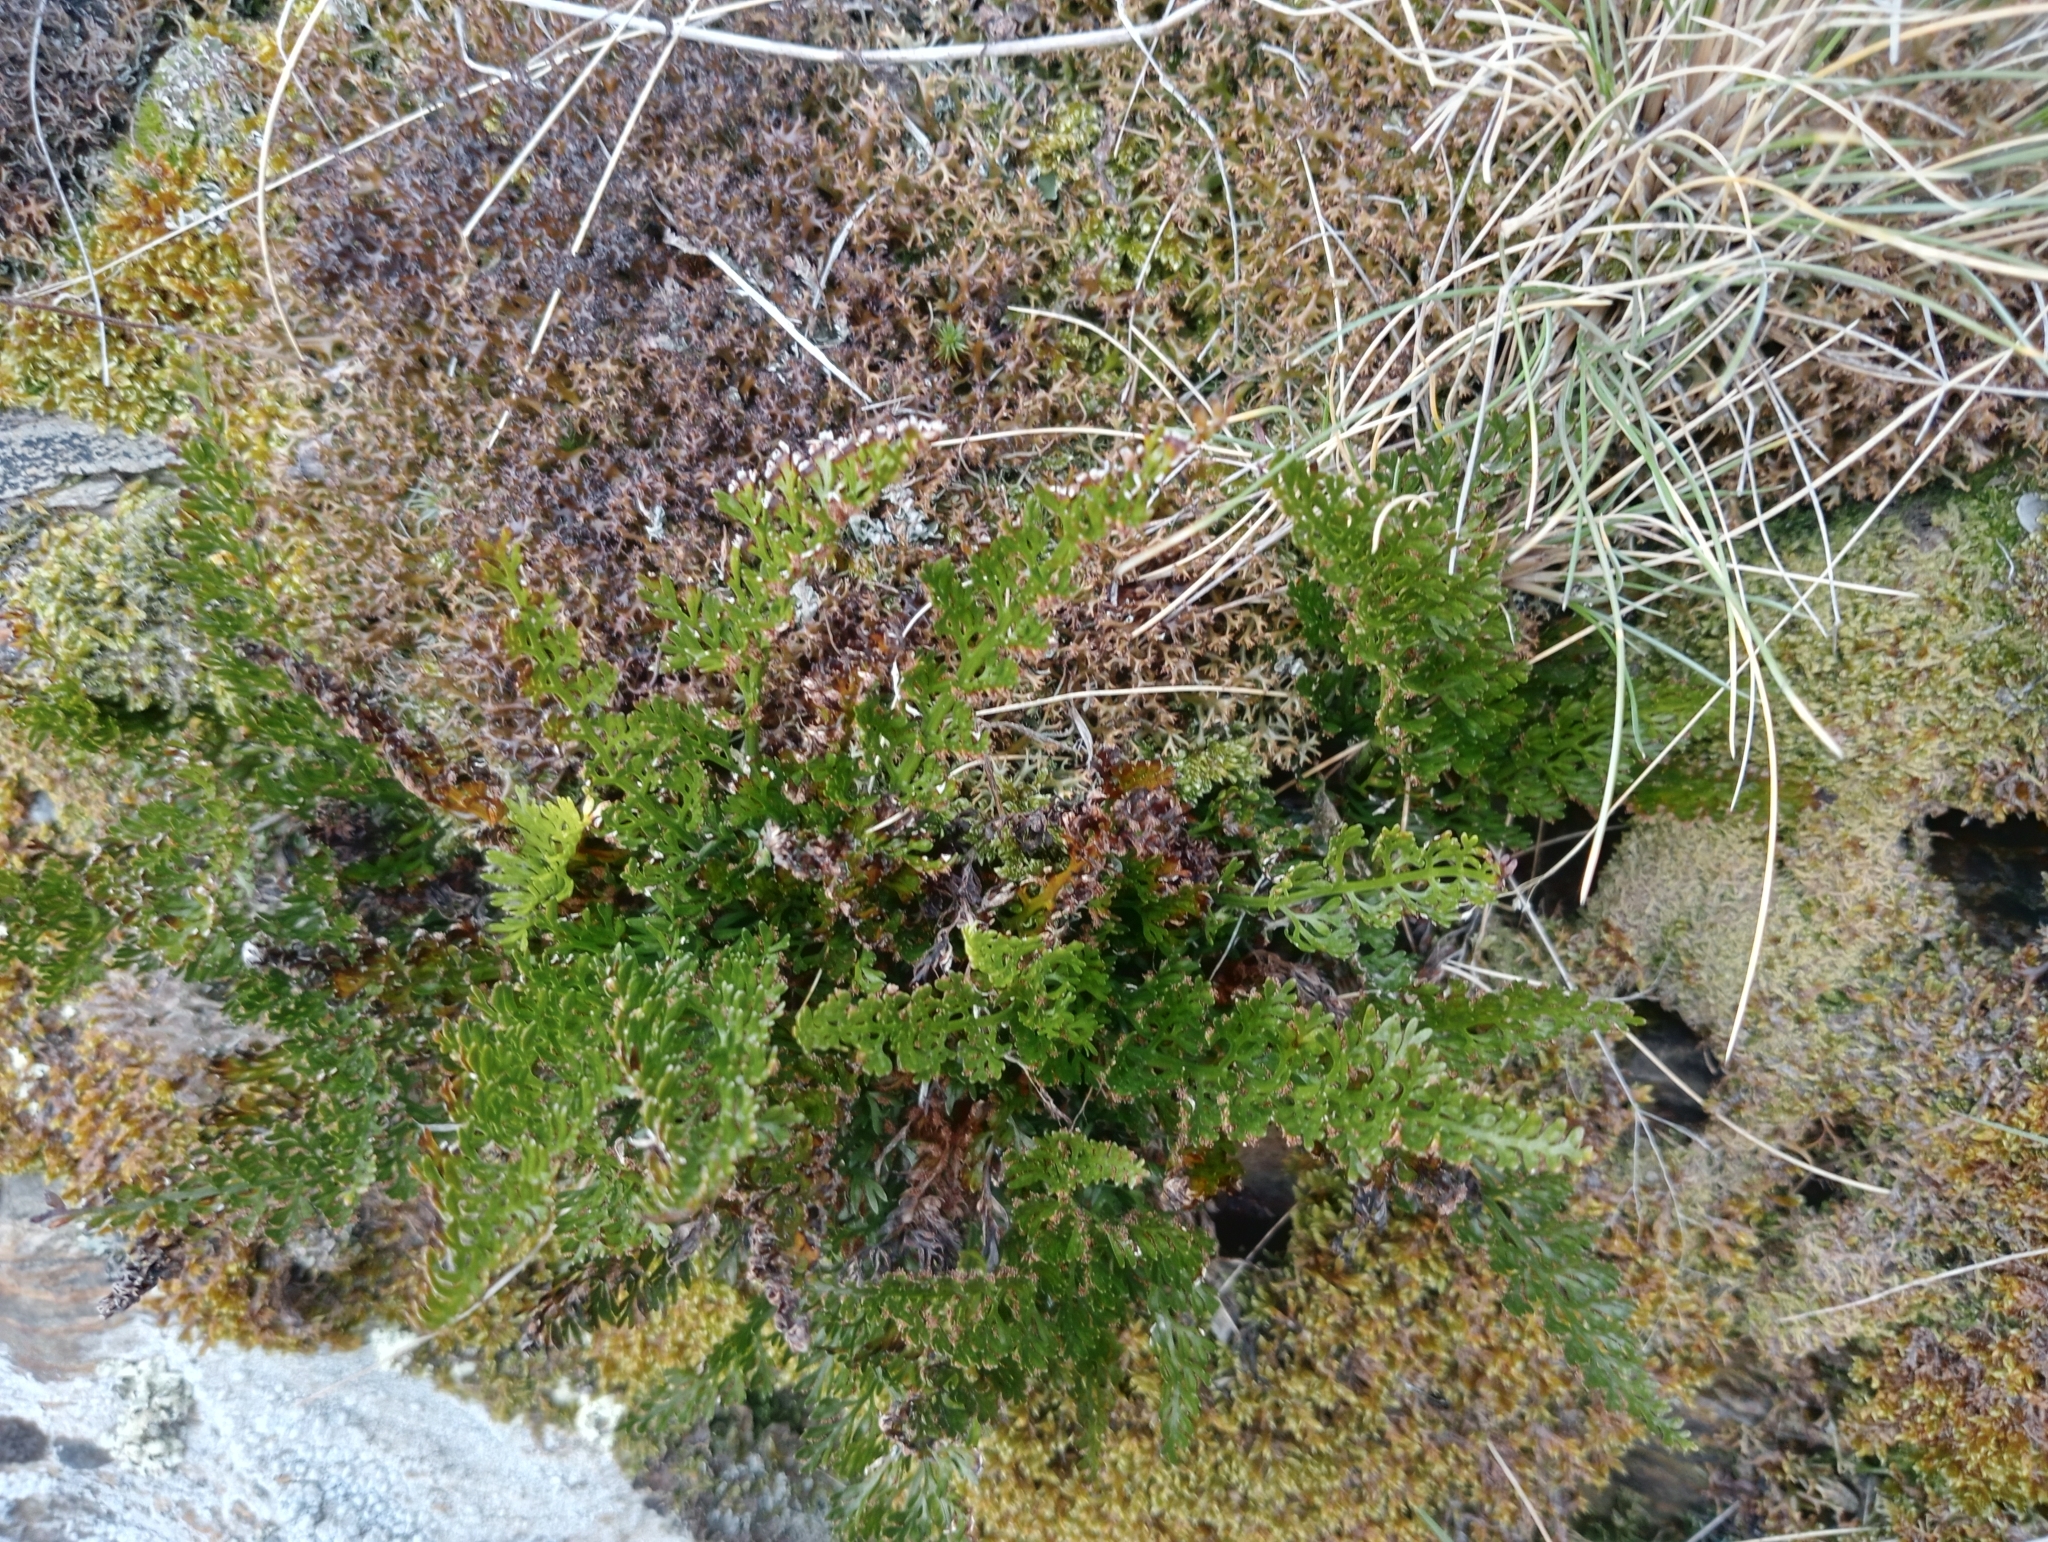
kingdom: Plantae
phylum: Tracheophyta
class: Polypodiopsida
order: Polypodiales
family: Aspleniaceae
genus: Asplenium
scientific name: Asplenium richardii
